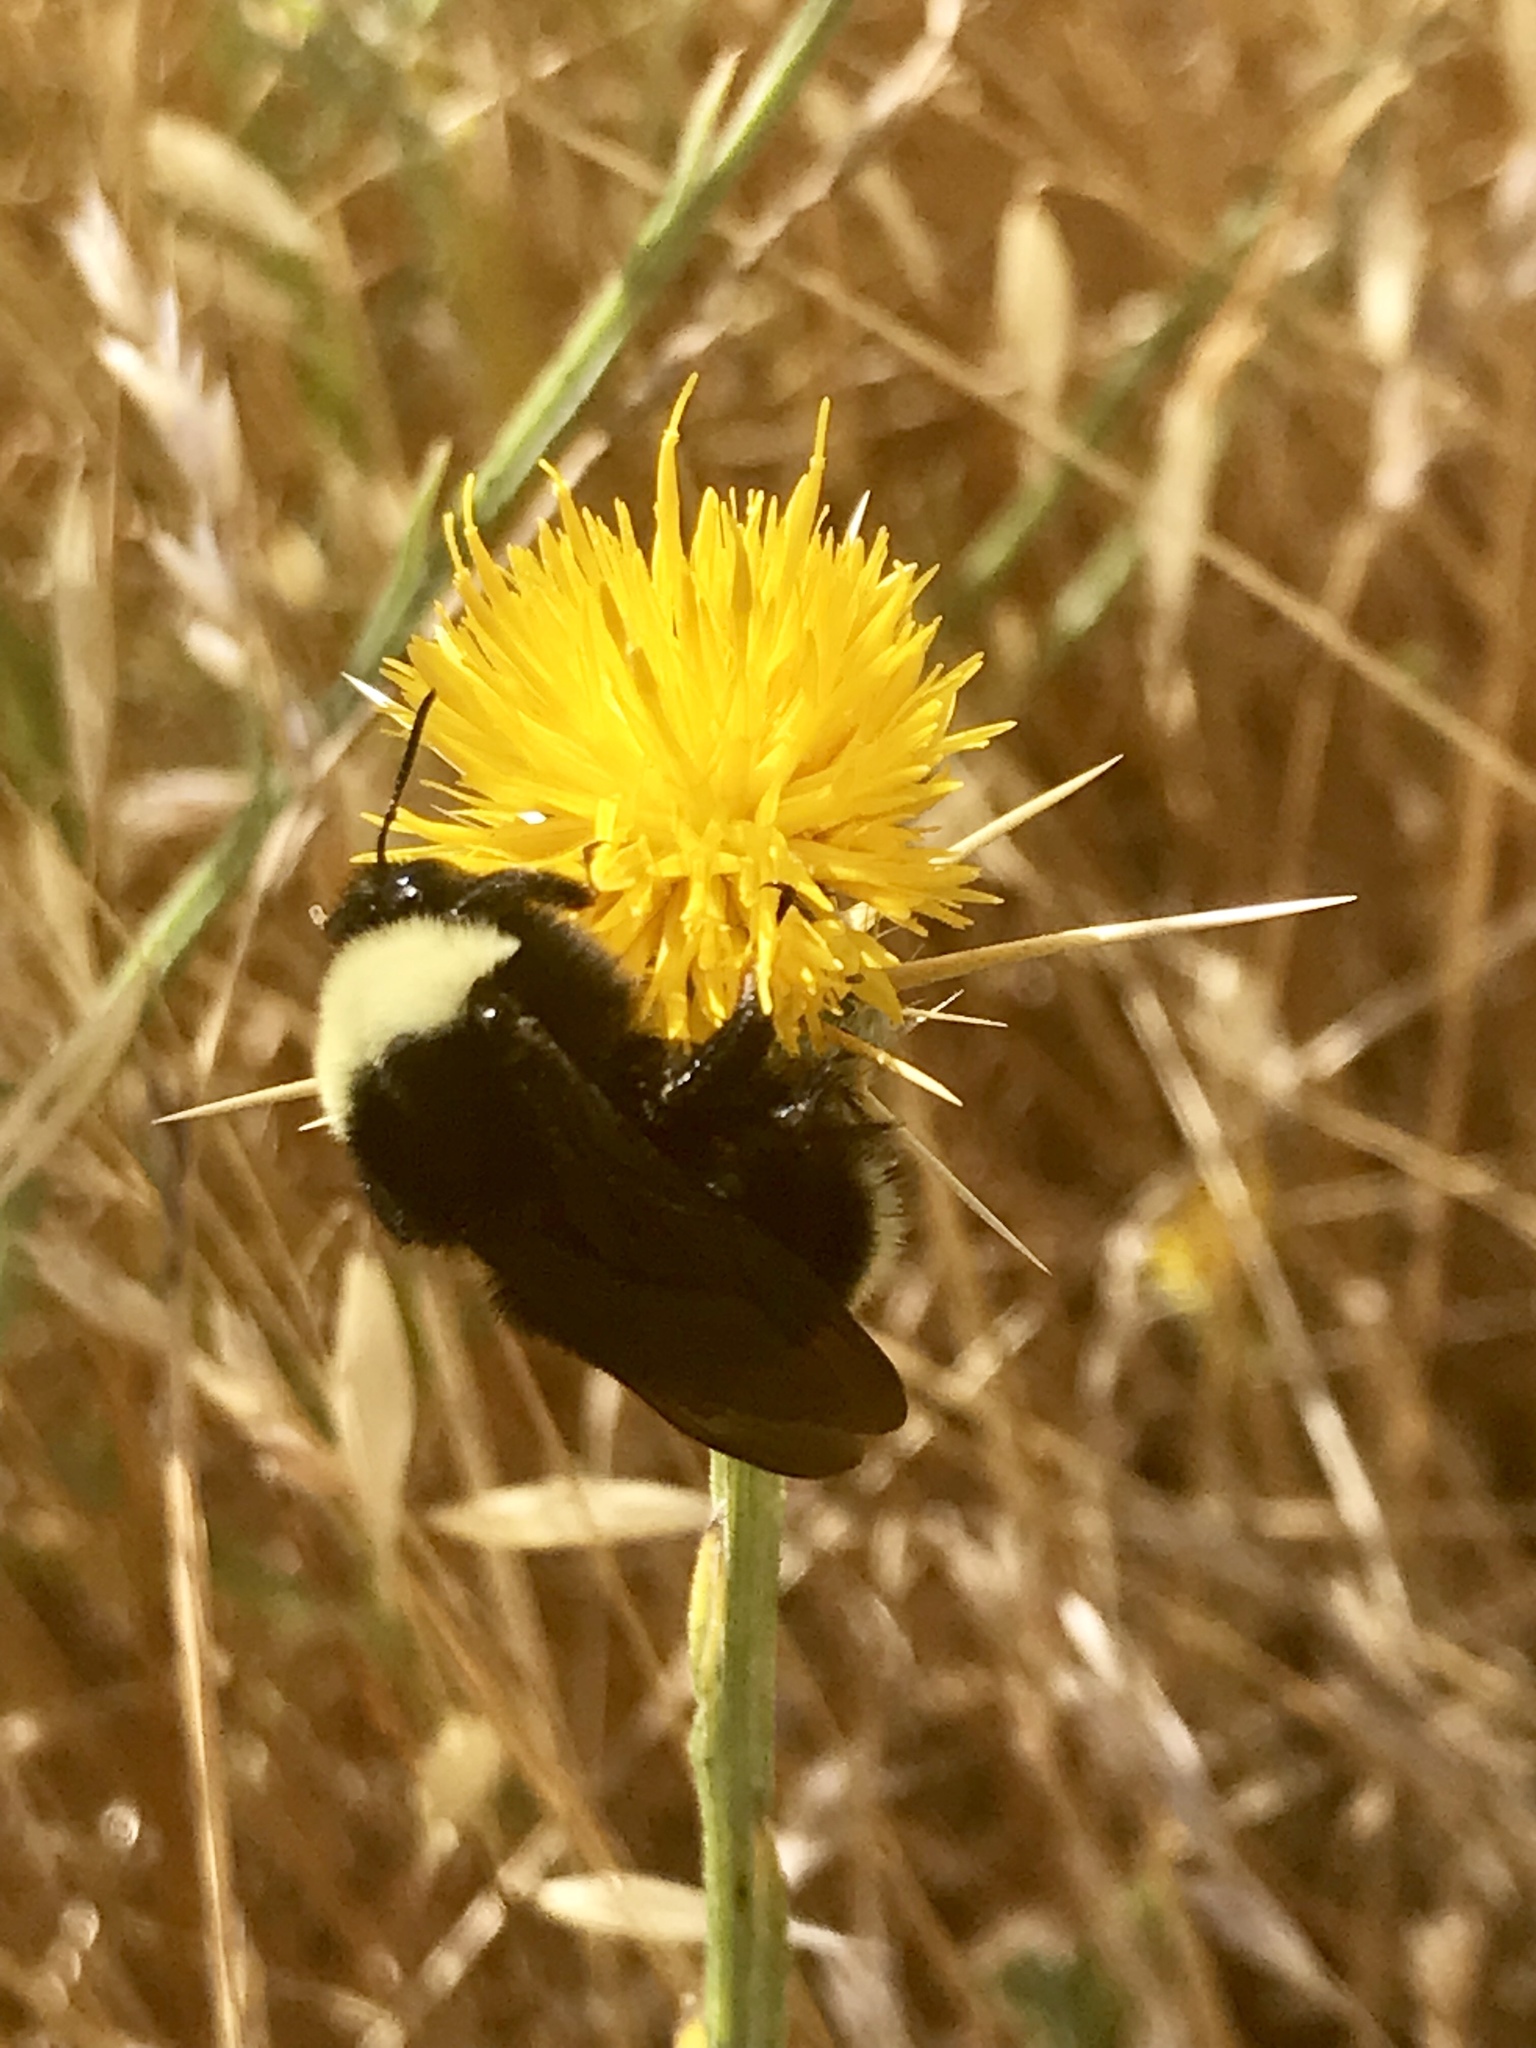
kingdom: Animalia
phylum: Arthropoda
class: Insecta
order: Hymenoptera
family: Apidae
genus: Bombus
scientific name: Bombus californicus
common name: California bumble bee
